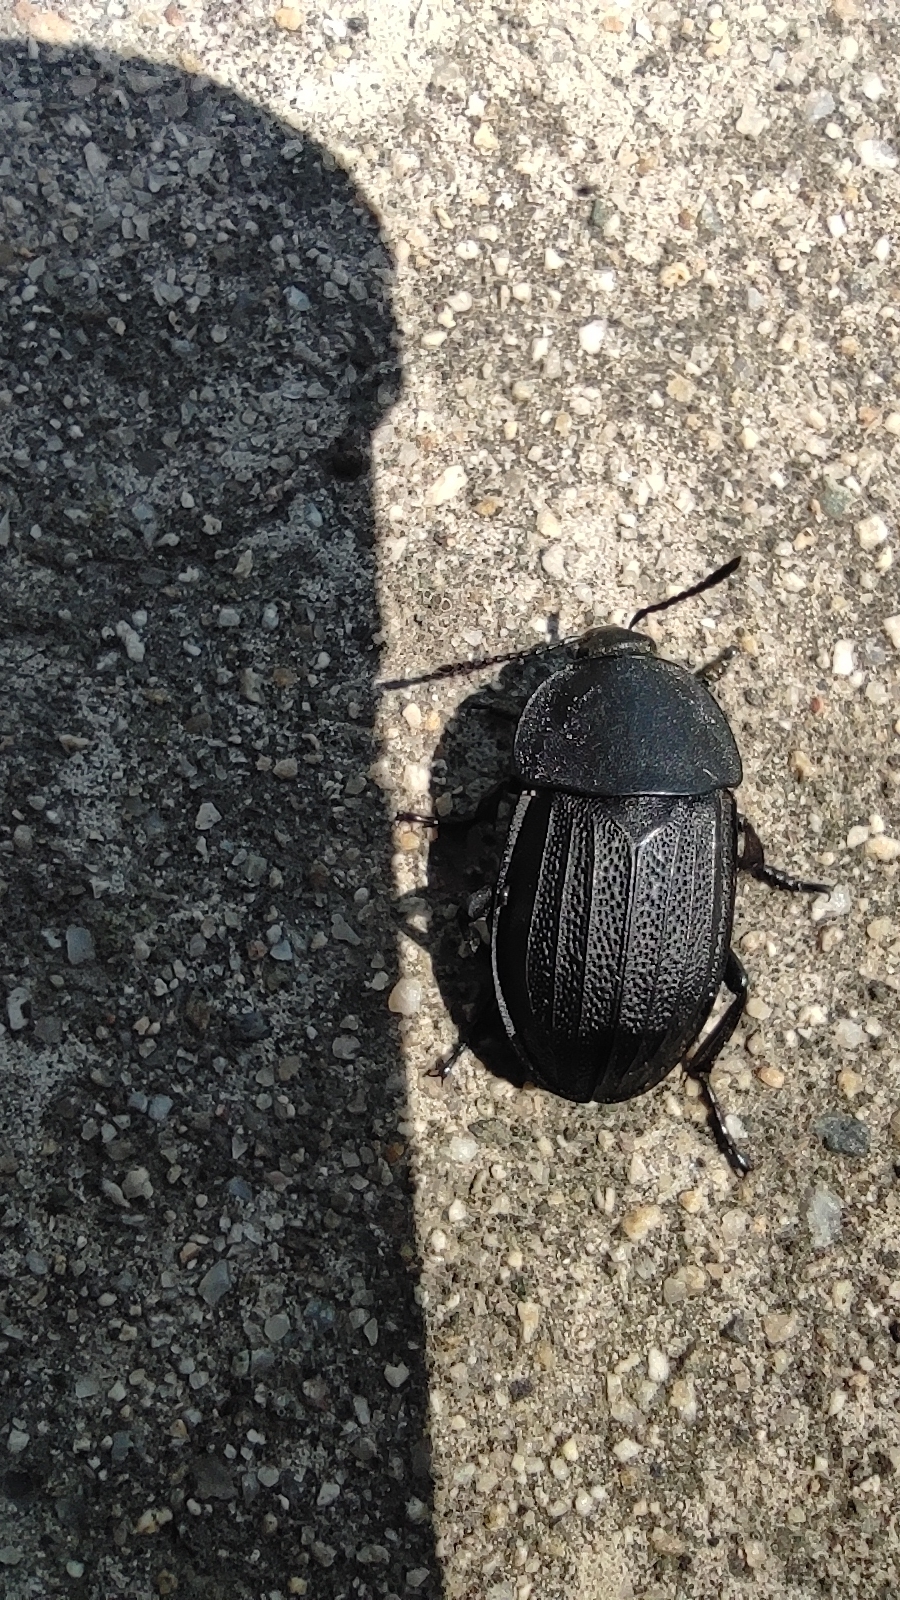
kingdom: Animalia
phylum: Arthropoda
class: Insecta
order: Coleoptera
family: Staphylinidae
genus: Silpha
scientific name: Silpha obscura
